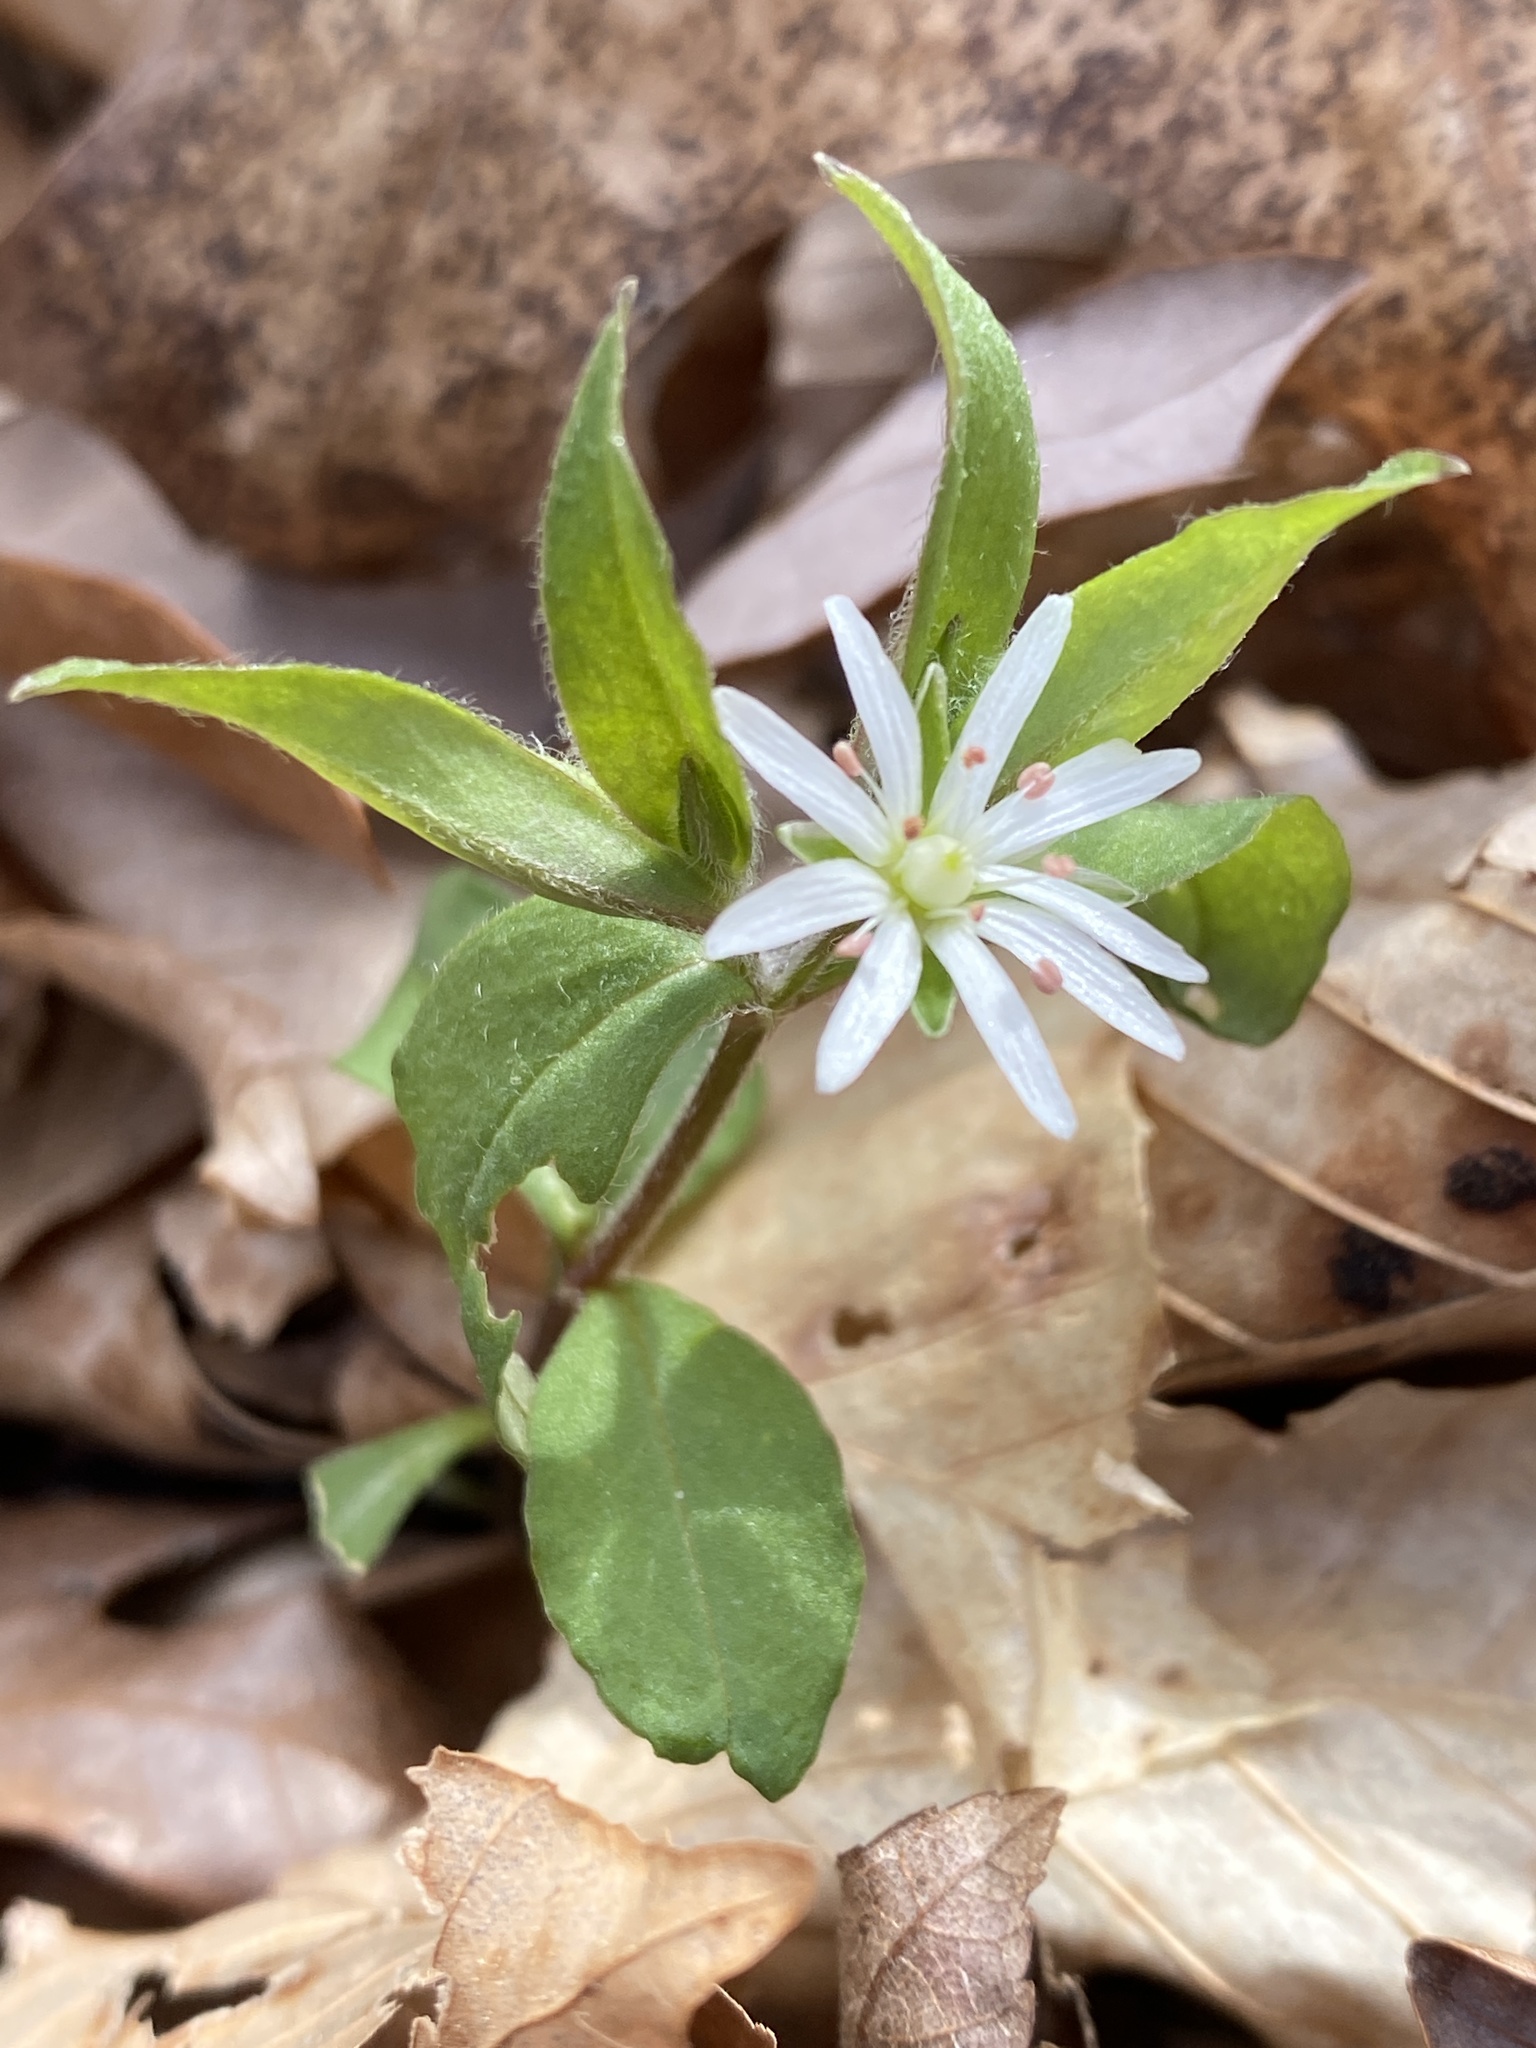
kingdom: Plantae
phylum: Tracheophyta
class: Magnoliopsida
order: Caryophyllales
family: Caryophyllaceae
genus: Stellaria
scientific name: Stellaria pubera
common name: Star chickweed
